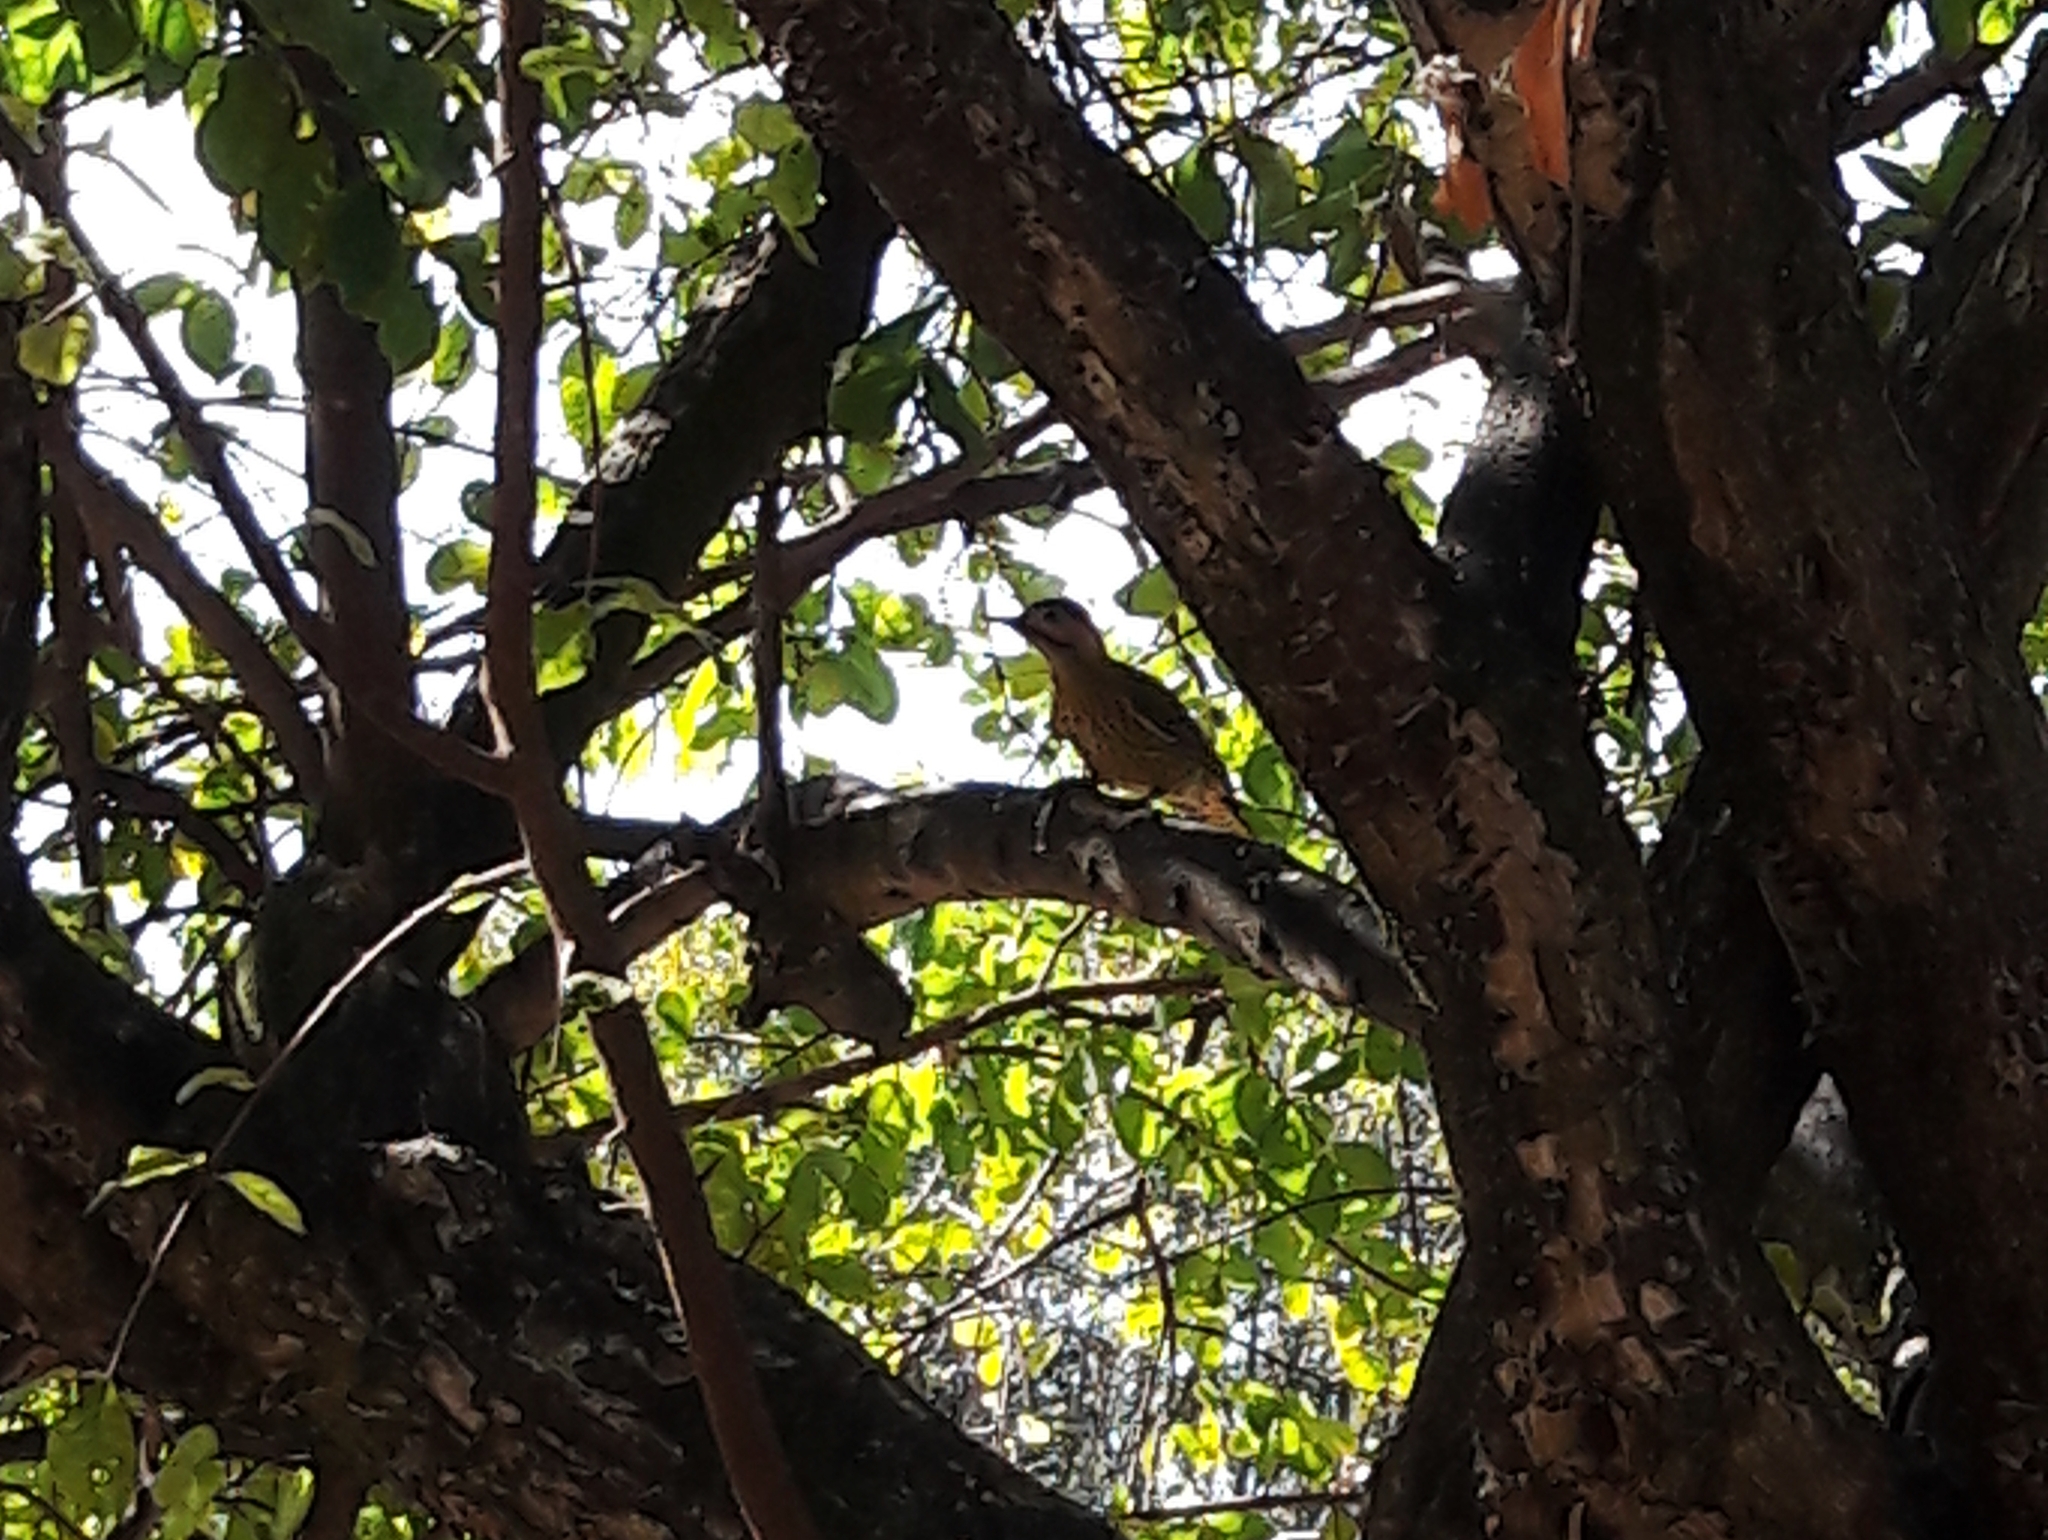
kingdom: Animalia
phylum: Chordata
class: Aves
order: Piciformes
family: Picidae
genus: Colaptes
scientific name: Colaptes melanochloros
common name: Green-barred woodpecker
